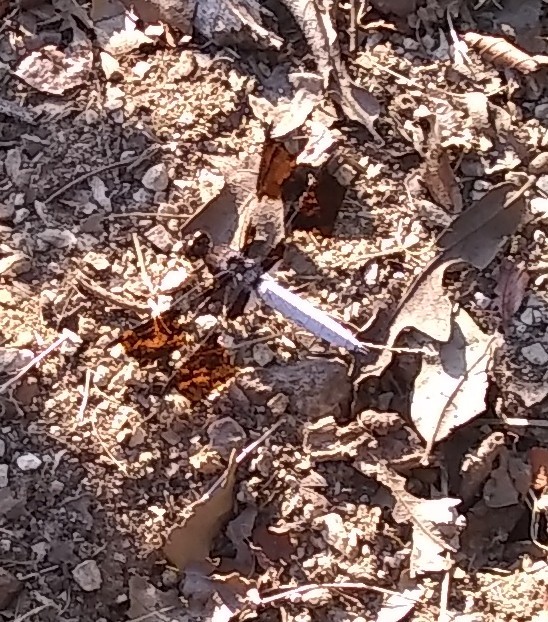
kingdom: Animalia
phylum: Arthropoda
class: Insecta
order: Odonata
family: Libellulidae
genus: Plathemis
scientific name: Plathemis lydia
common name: Common whitetail
